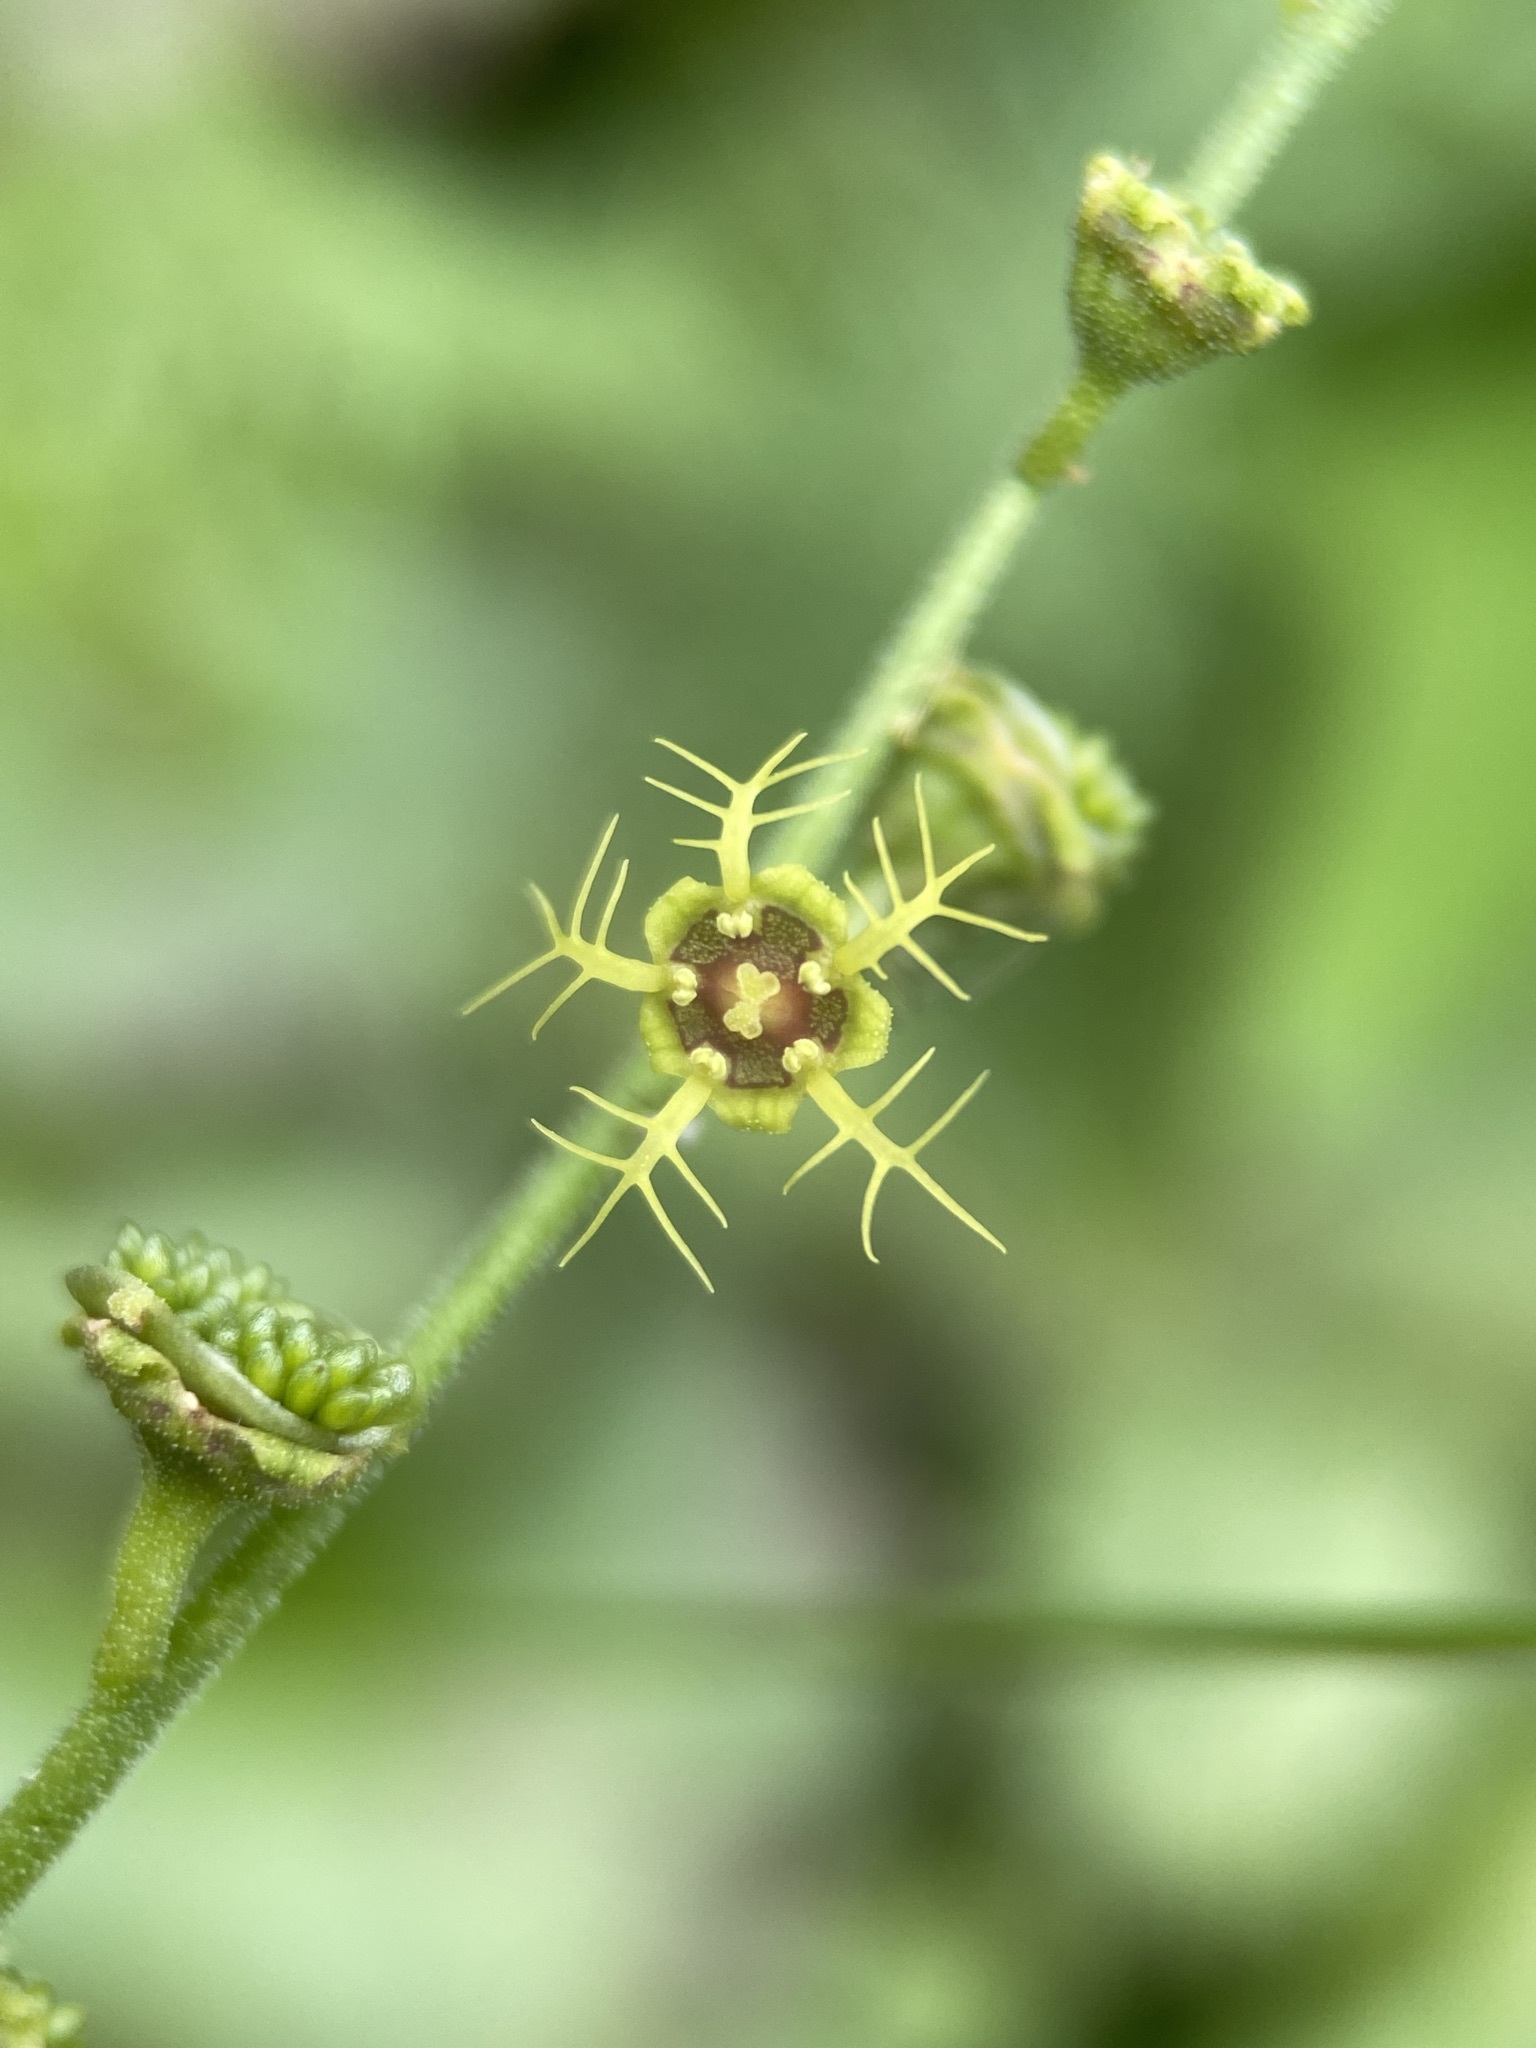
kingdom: Plantae
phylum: Tracheophyta
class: Magnoliopsida
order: Saxifragales
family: Saxifragaceae
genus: Pectiantia
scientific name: Pectiantia pentandra
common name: Alpine bishop's-cap
